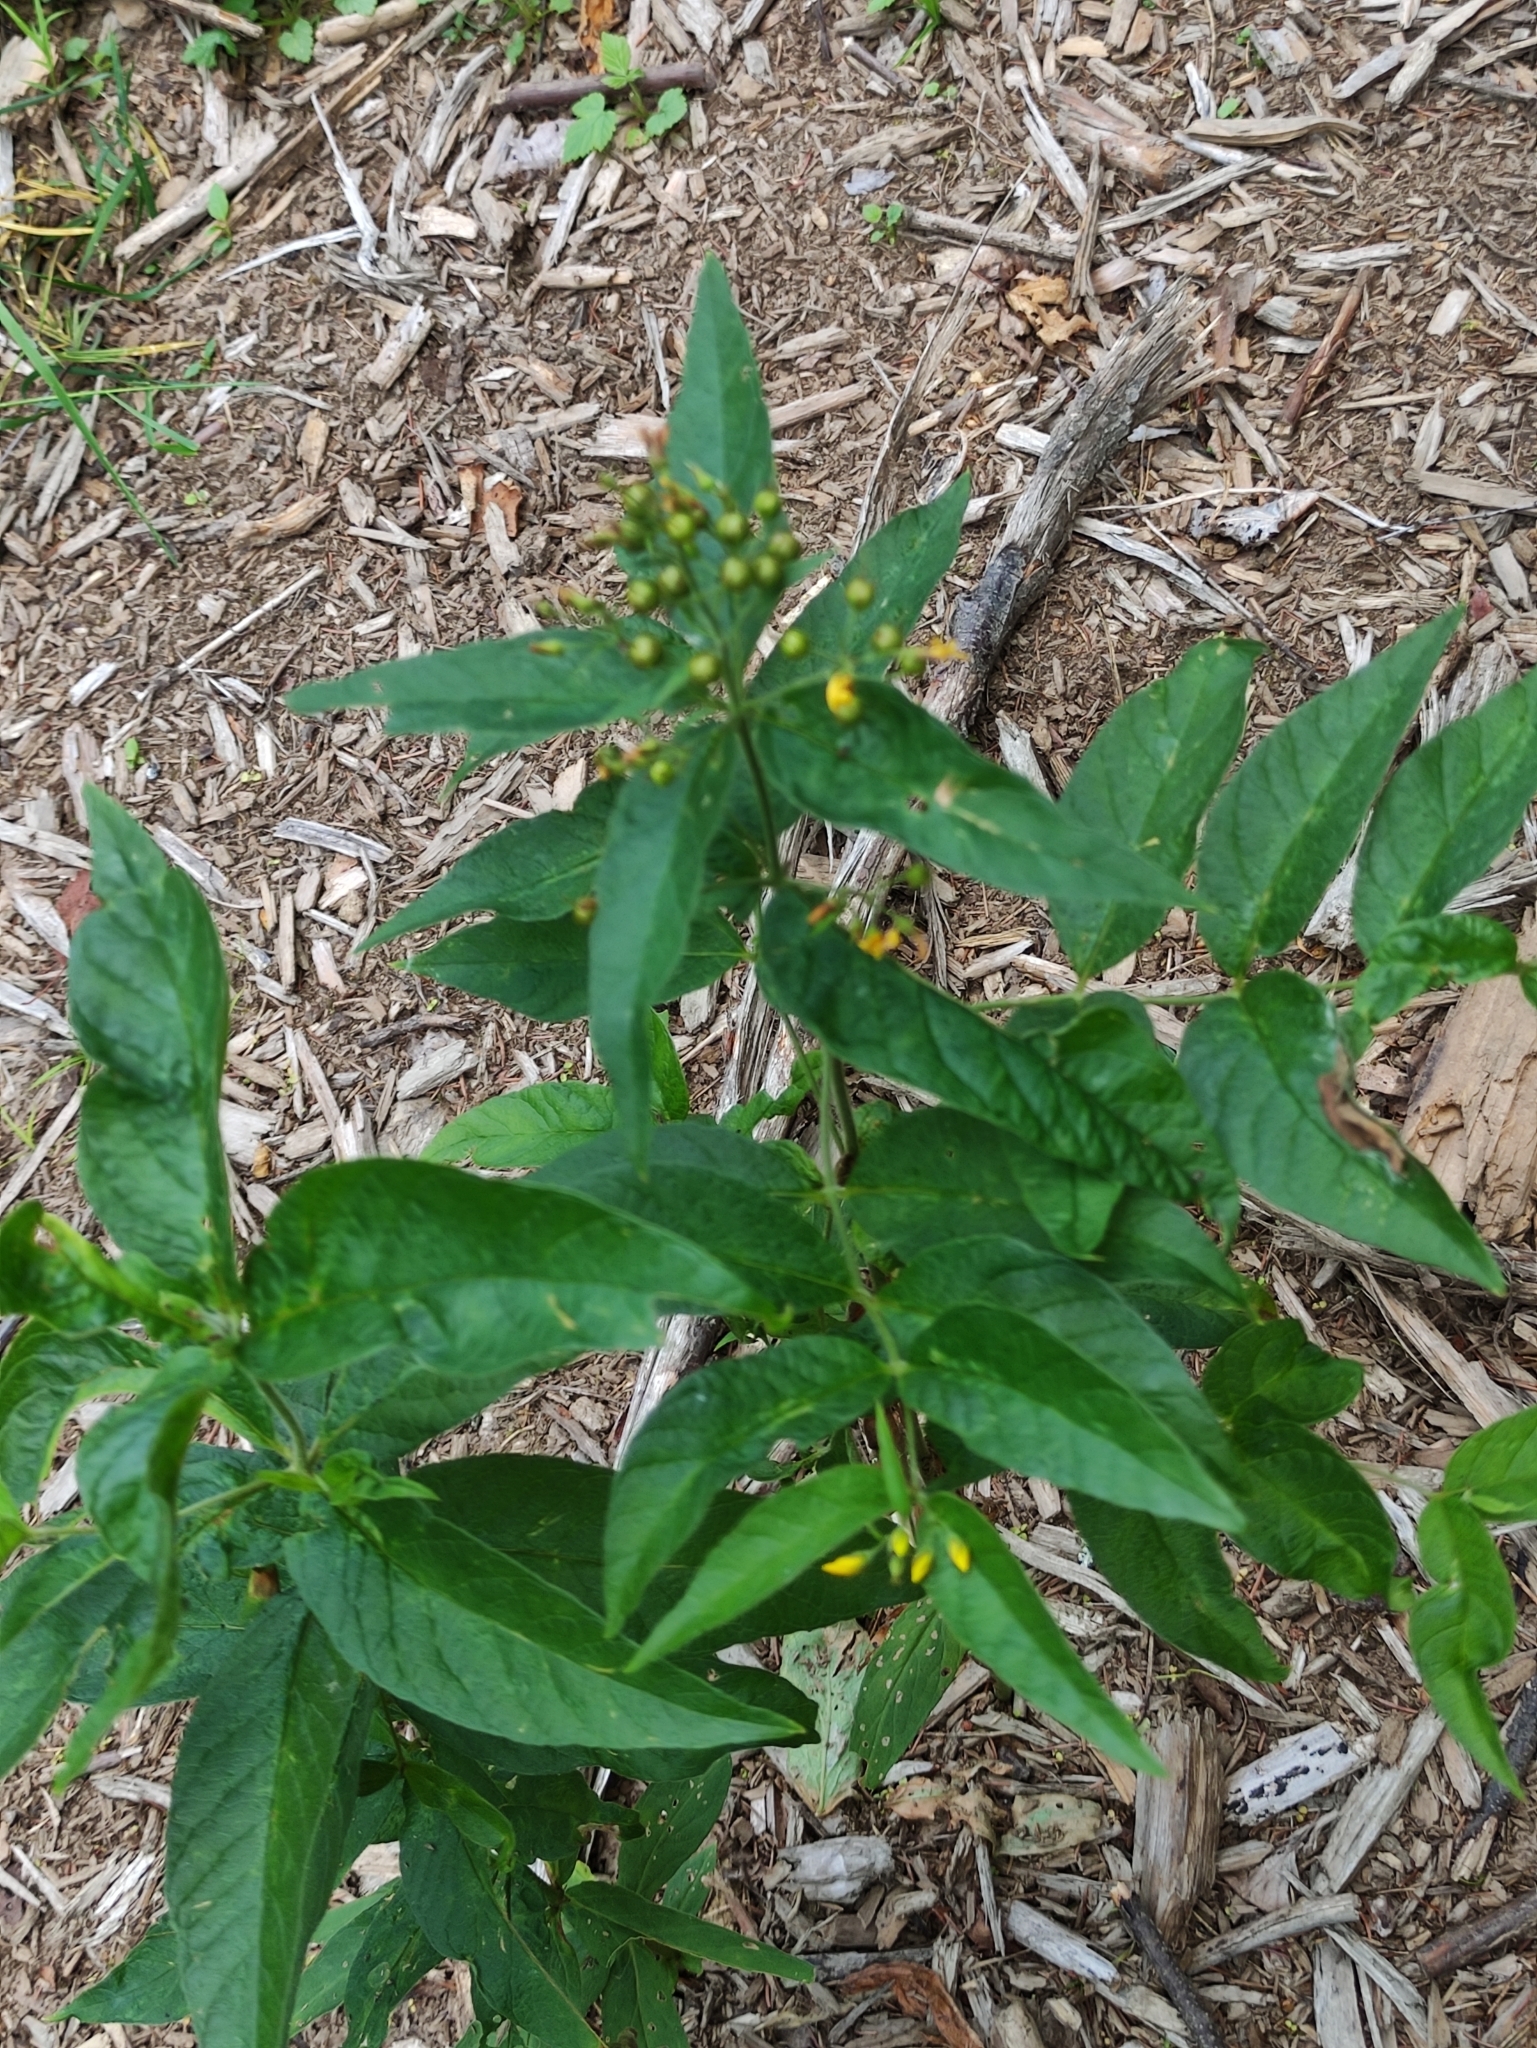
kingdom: Plantae
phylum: Tracheophyta
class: Magnoliopsida
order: Ericales
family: Primulaceae
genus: Lysimachia
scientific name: Lysimachia vulgaris
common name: Yellow loosestrife
